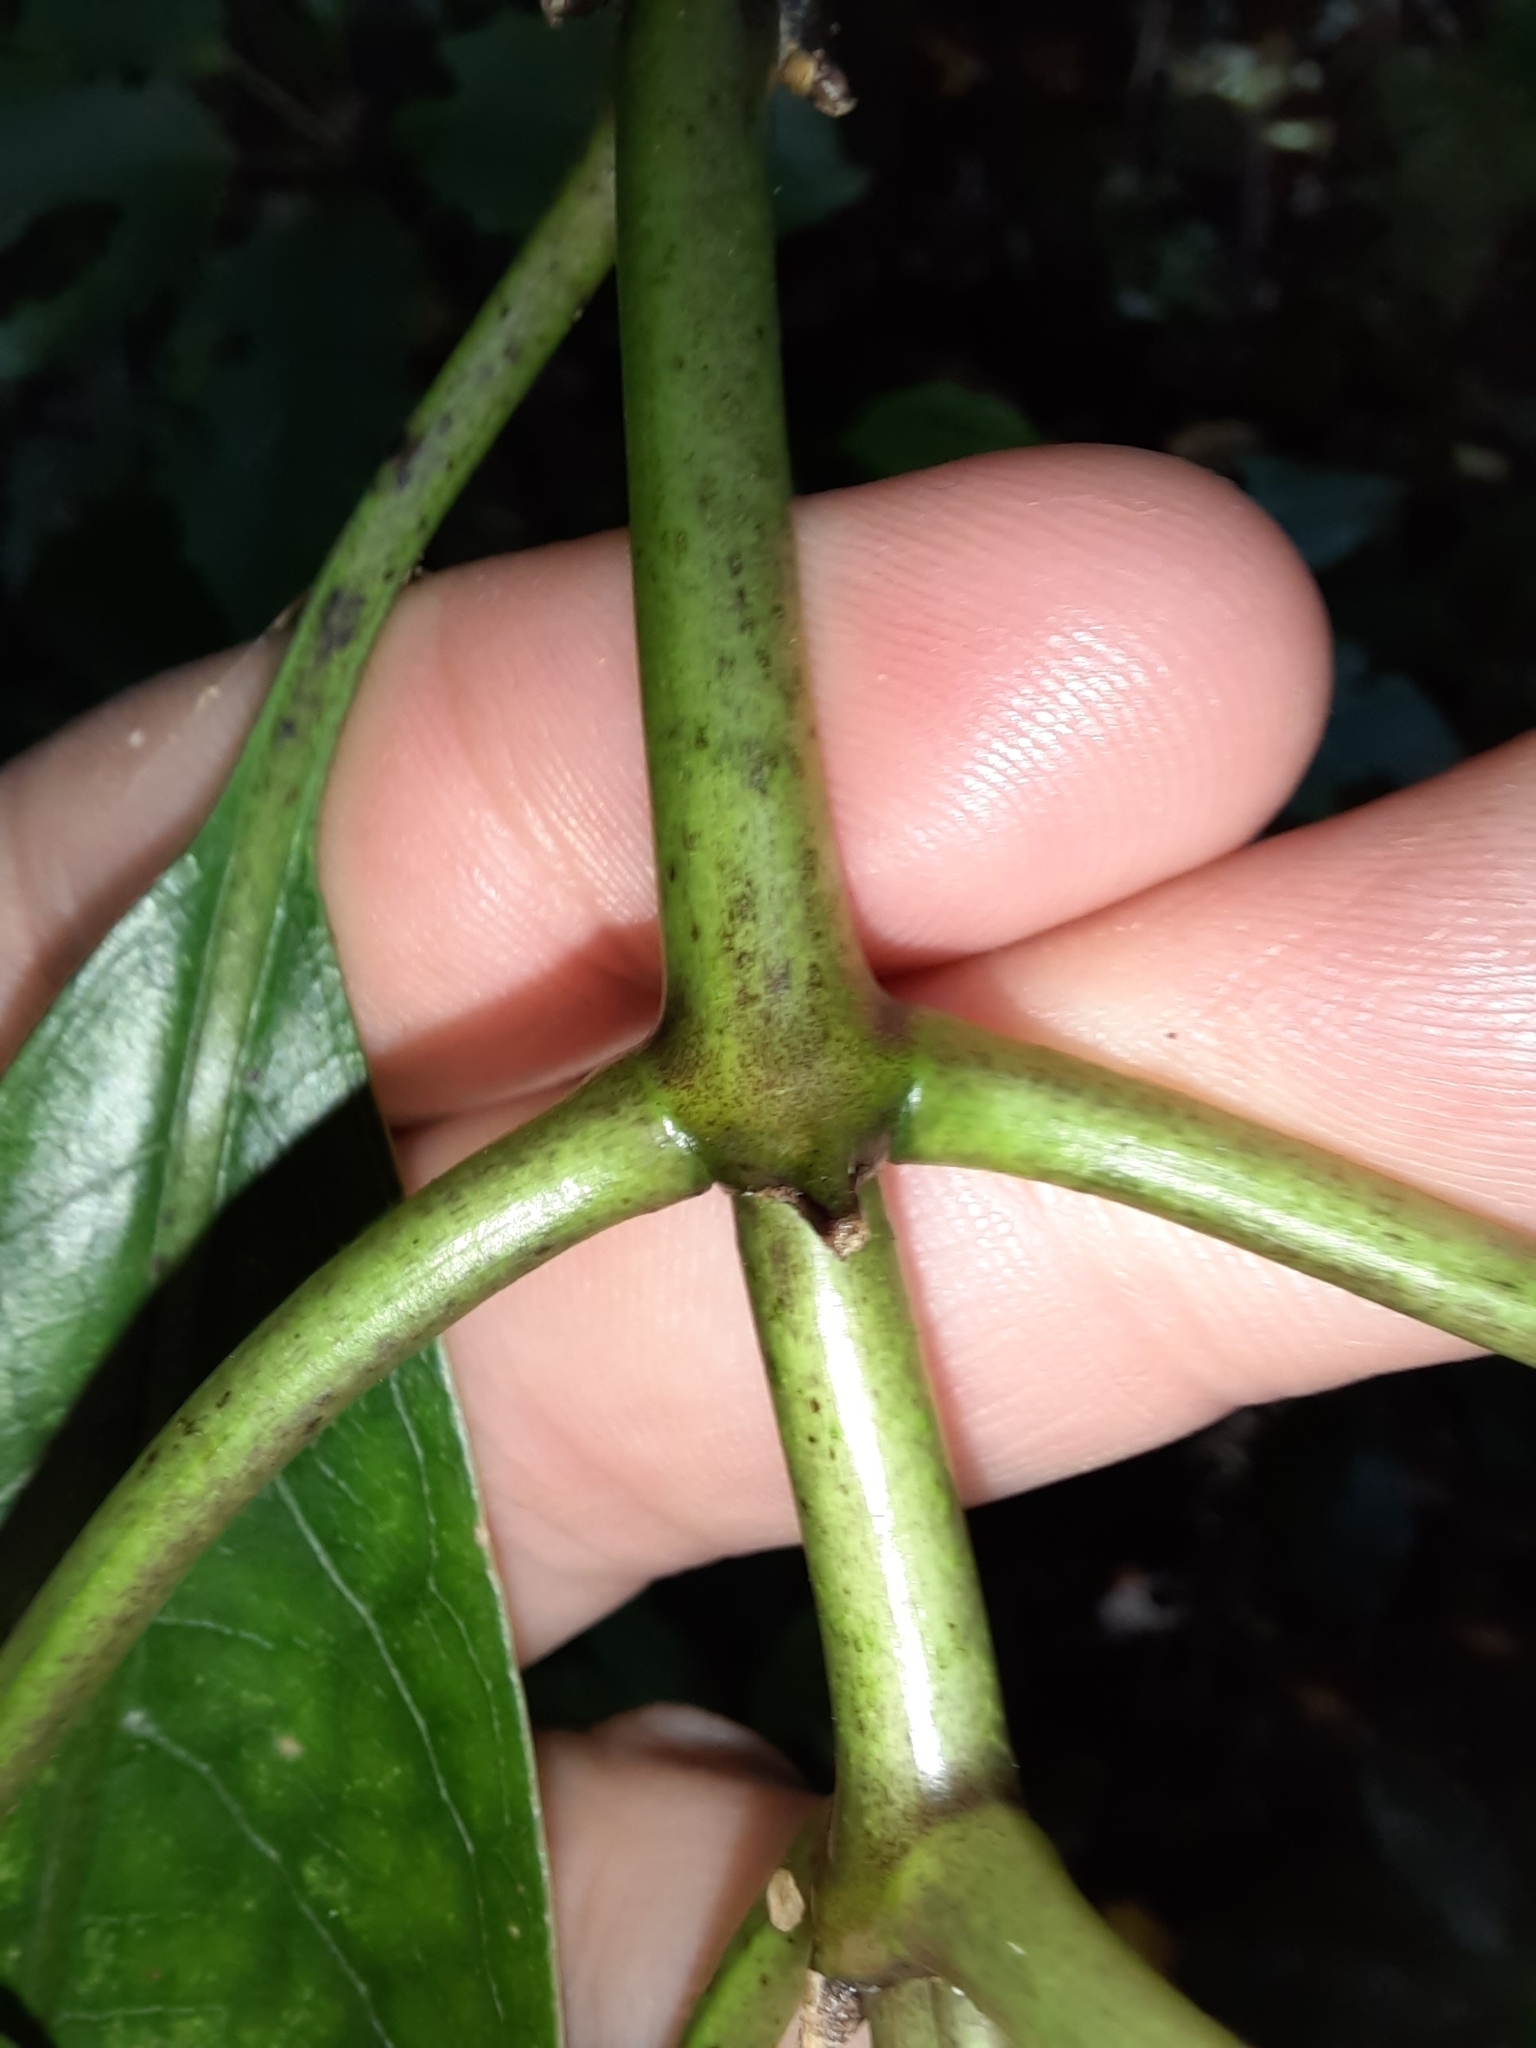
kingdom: Plantae
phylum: Tracheophyta
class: Magnoliopsida
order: Gentianales
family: Rubiaceae
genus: Coprosma
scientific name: Coprosma autumnalis
